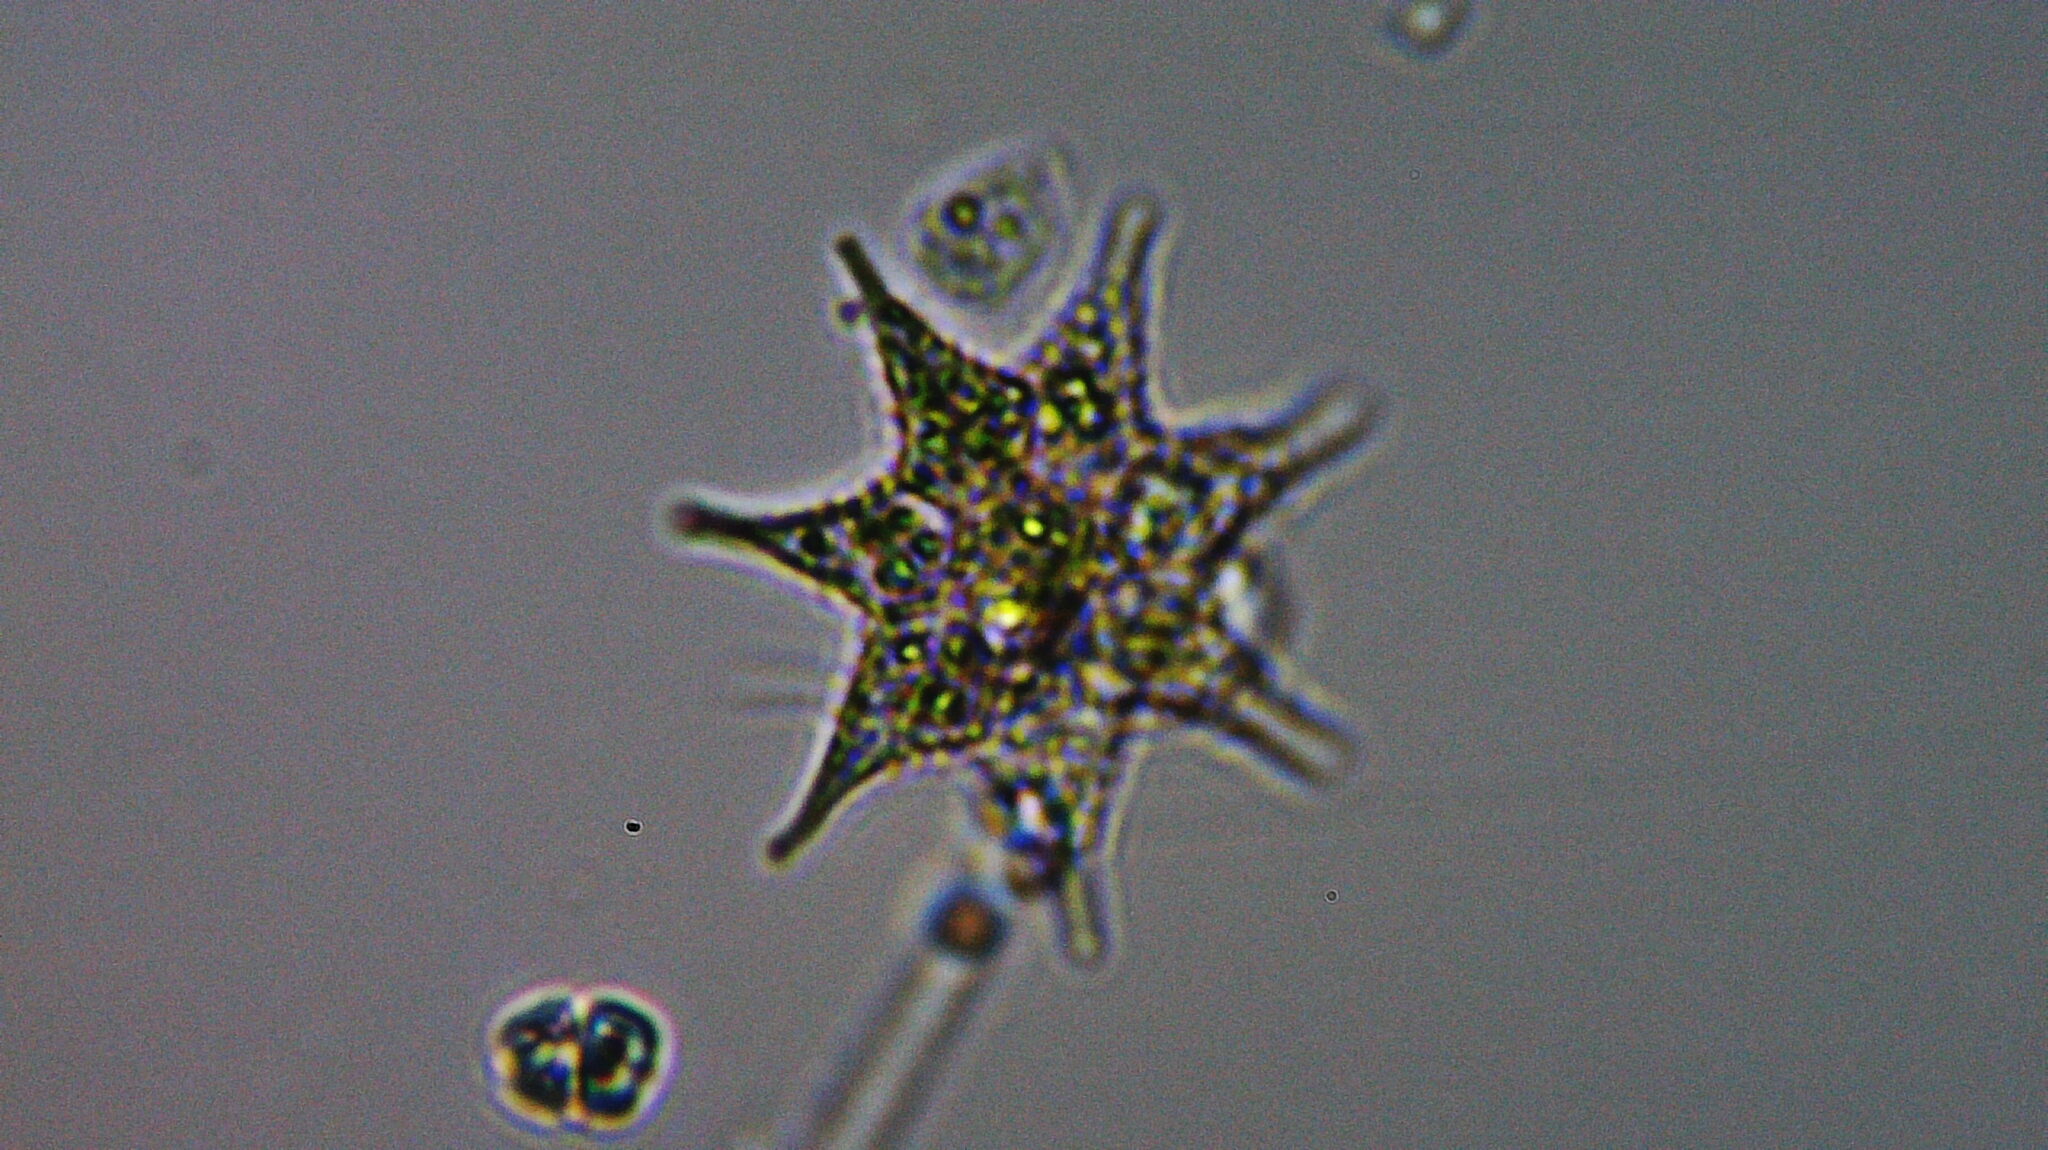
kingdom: Plantae
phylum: Chlorophyta
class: Chlorophyceae
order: Sphaeropleales
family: Hydrodictyaceae
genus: Monactinus
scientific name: Monactinus simplex
